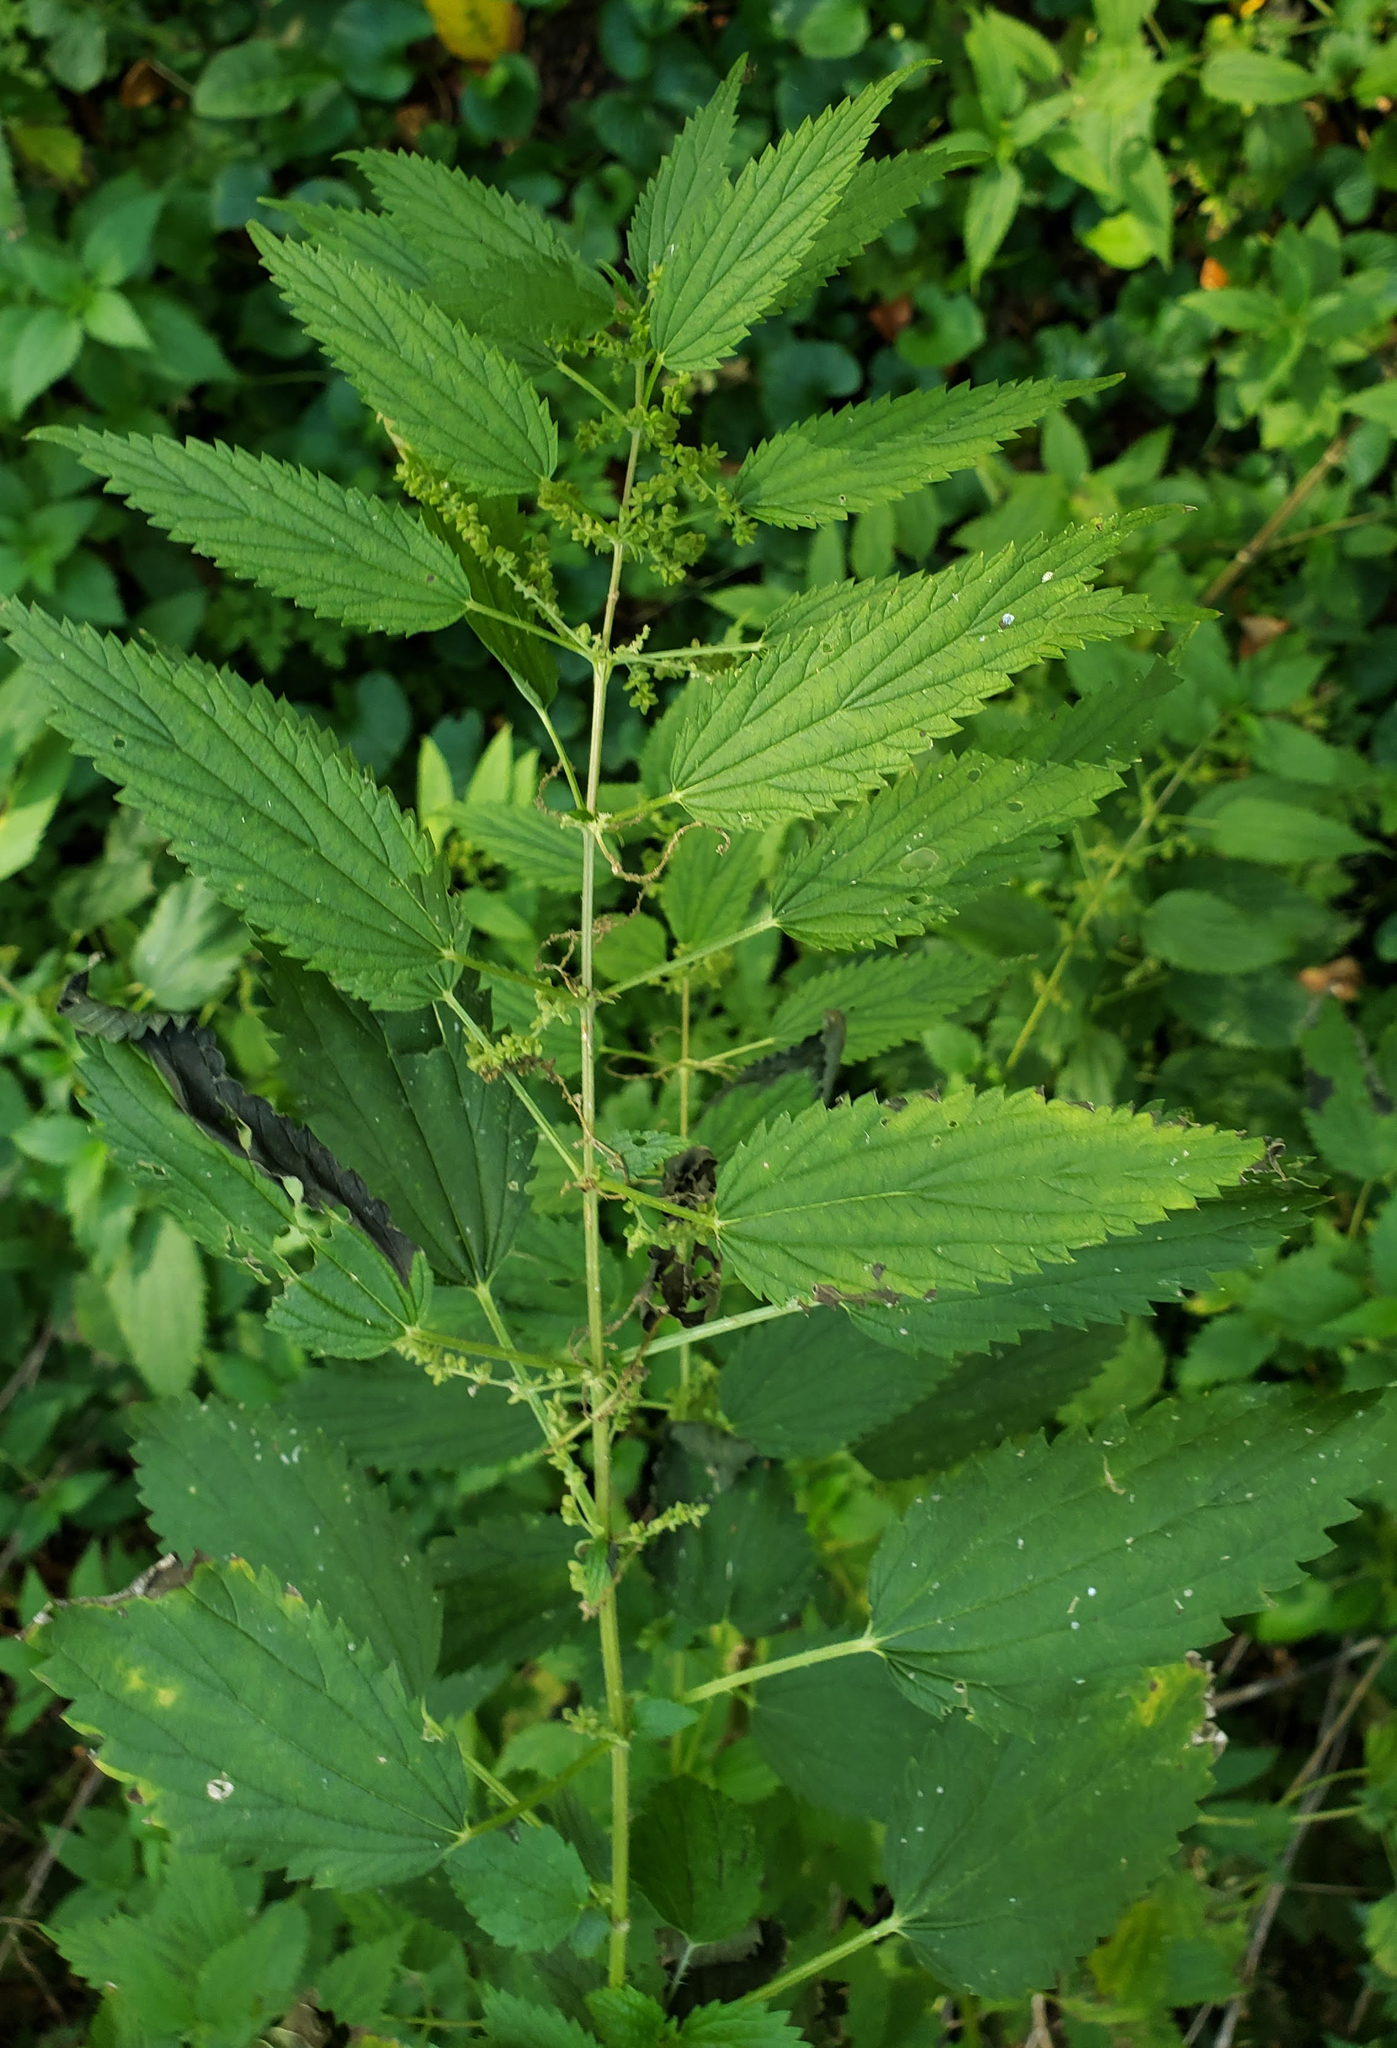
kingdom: Plantae
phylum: Tracheophyta
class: Magnoliopsida
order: Rosales
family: Urticaceae
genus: Urtica
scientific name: Urtica dioica
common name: Common nettle
